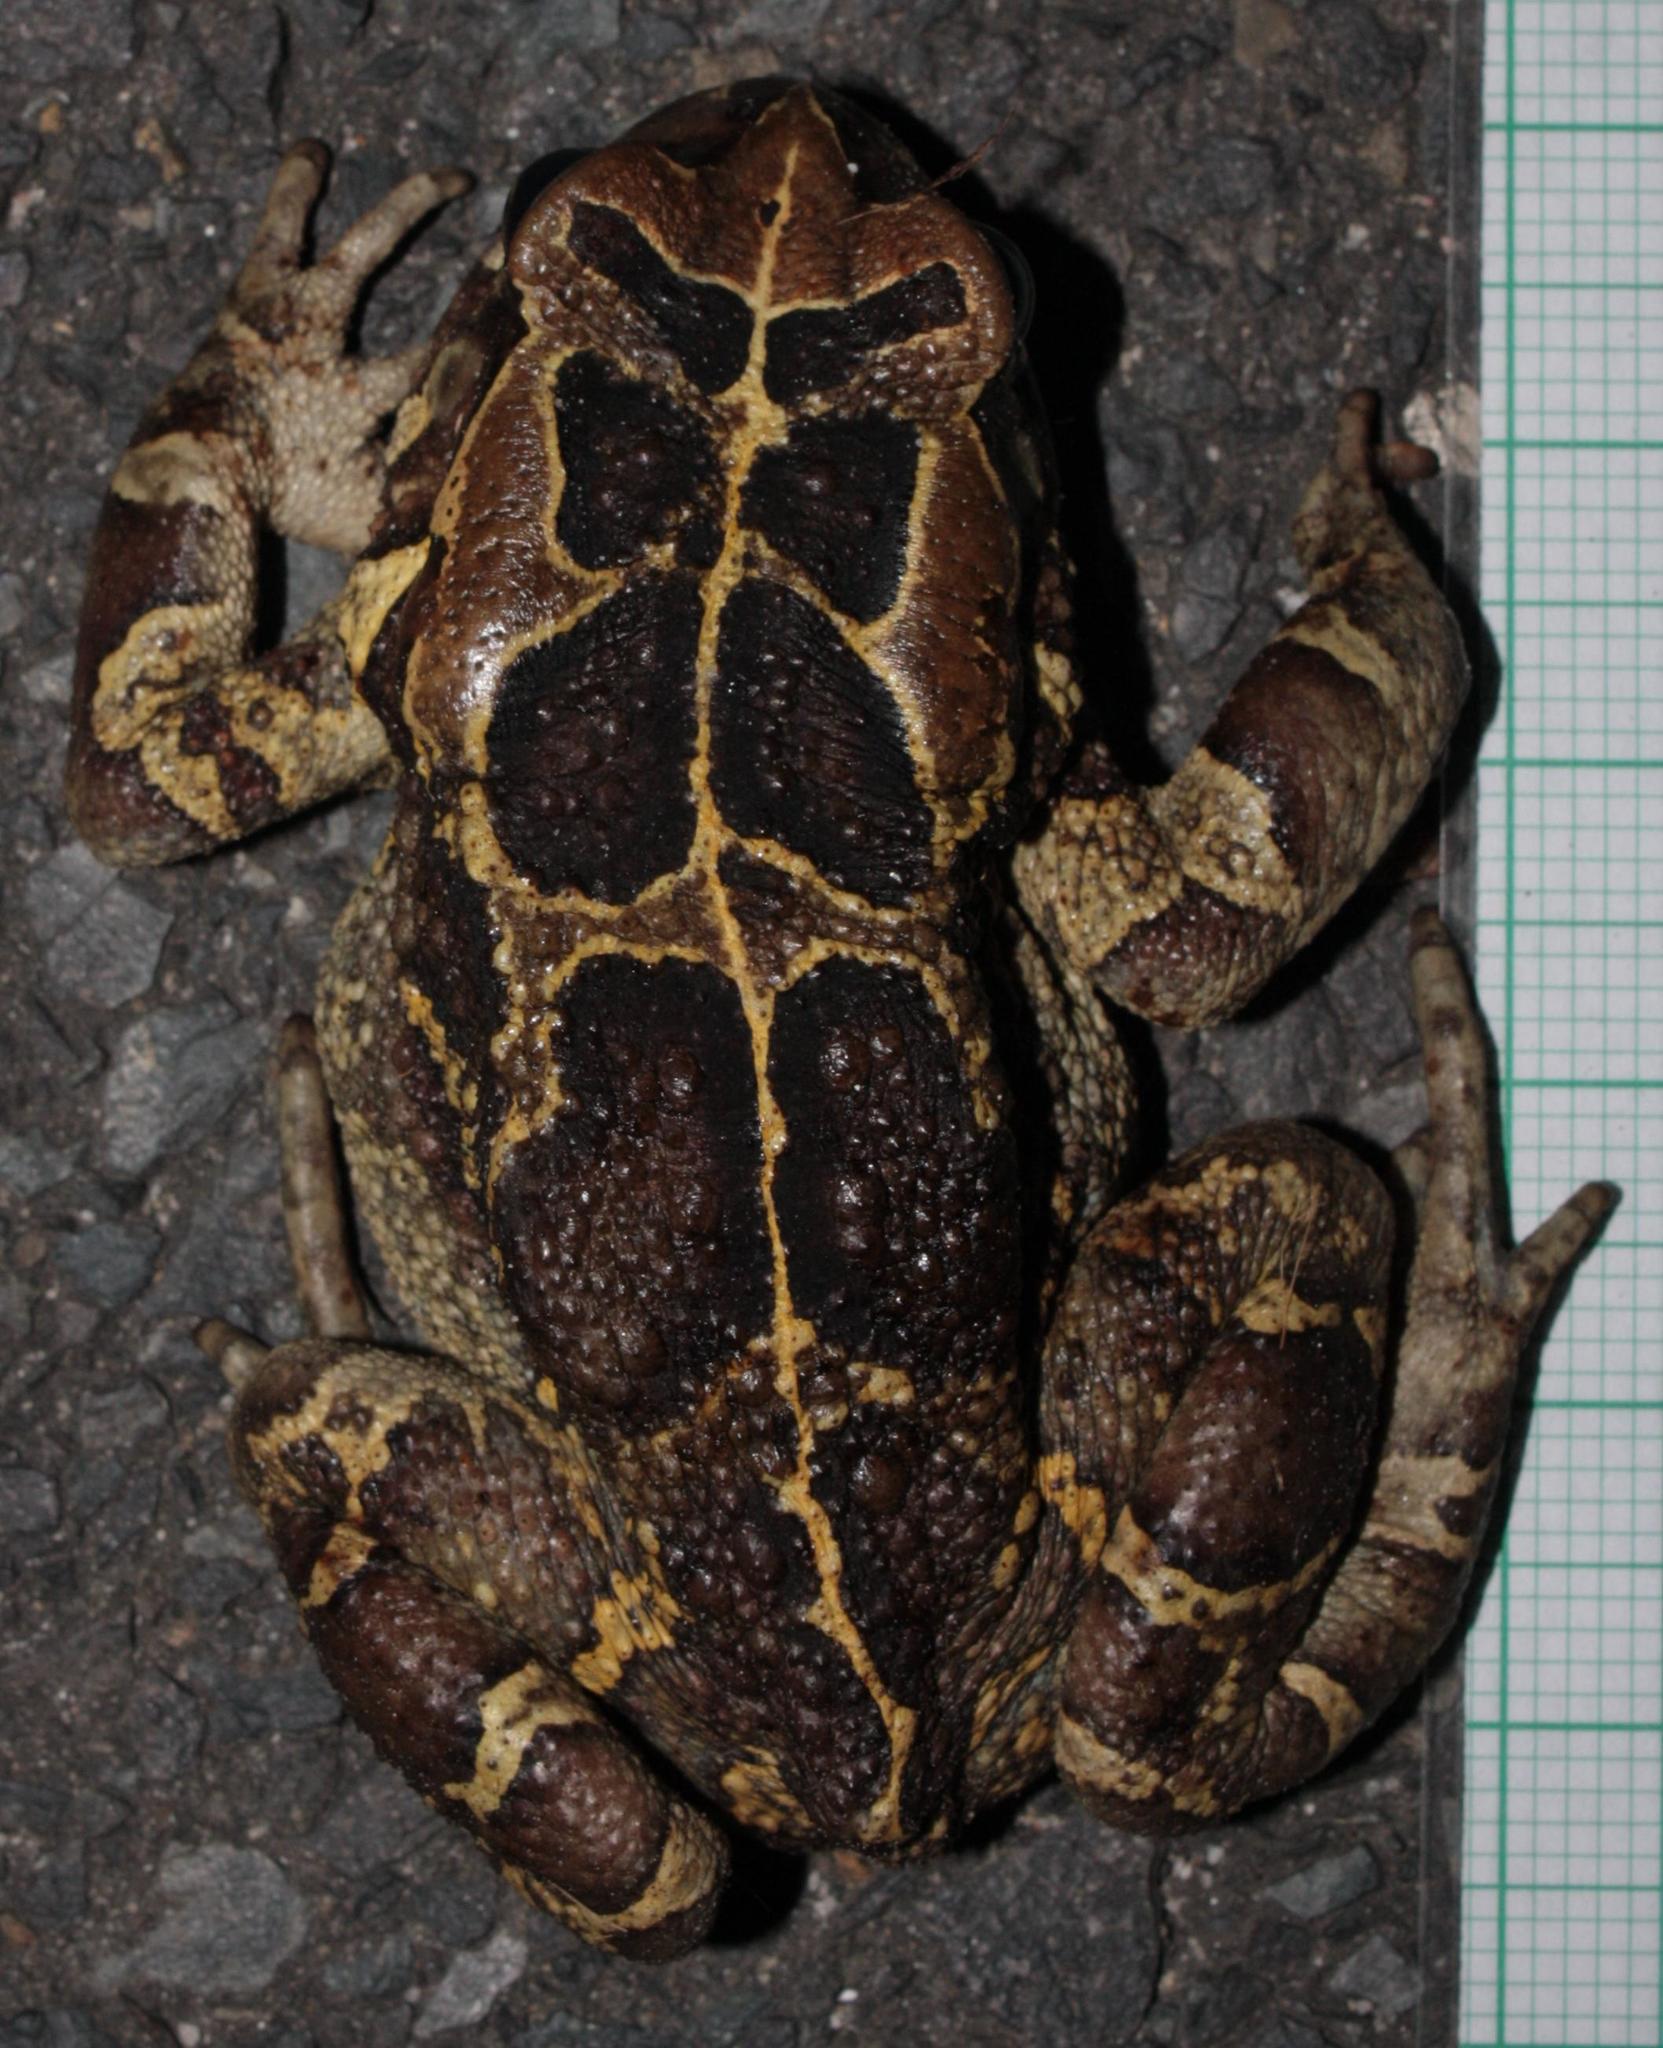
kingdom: Animalia
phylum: Chordata
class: Amphibia
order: Anura
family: Bufonidae
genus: Sclerophrys
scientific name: Sclerophrys pantherina
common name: Panther toad
